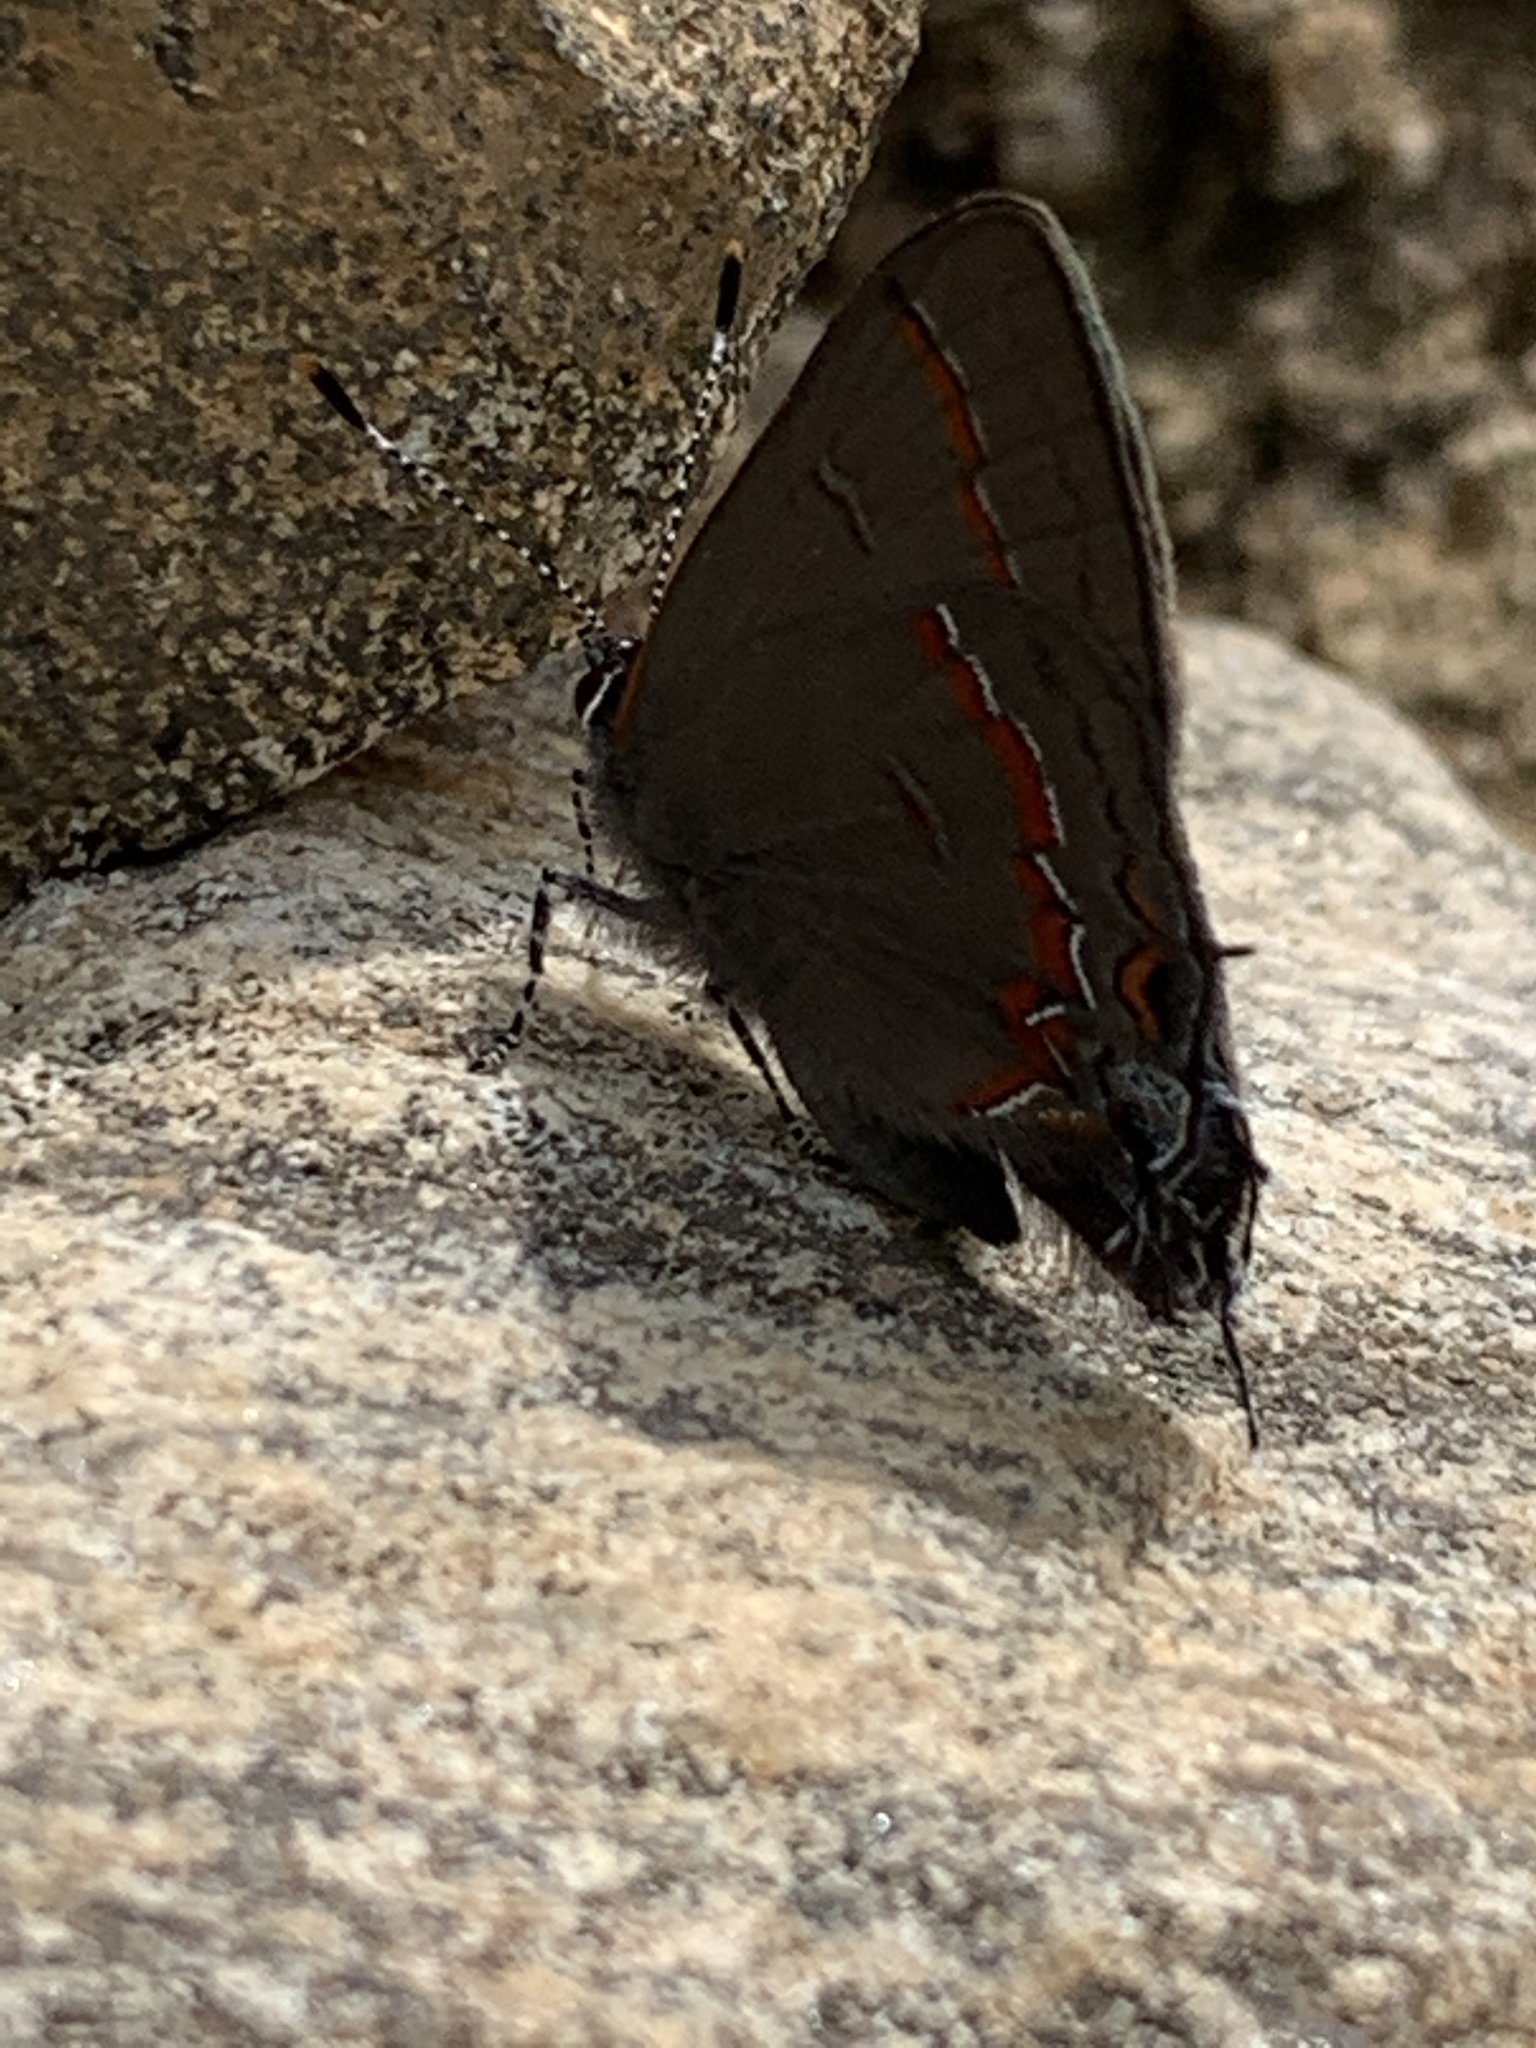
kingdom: Animalia
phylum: Arthropoda
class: Insecta
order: Lepidoptera
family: Lycaenidae
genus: Calycopis
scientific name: Calycopis cecrops
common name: Red-banded hairstreak
